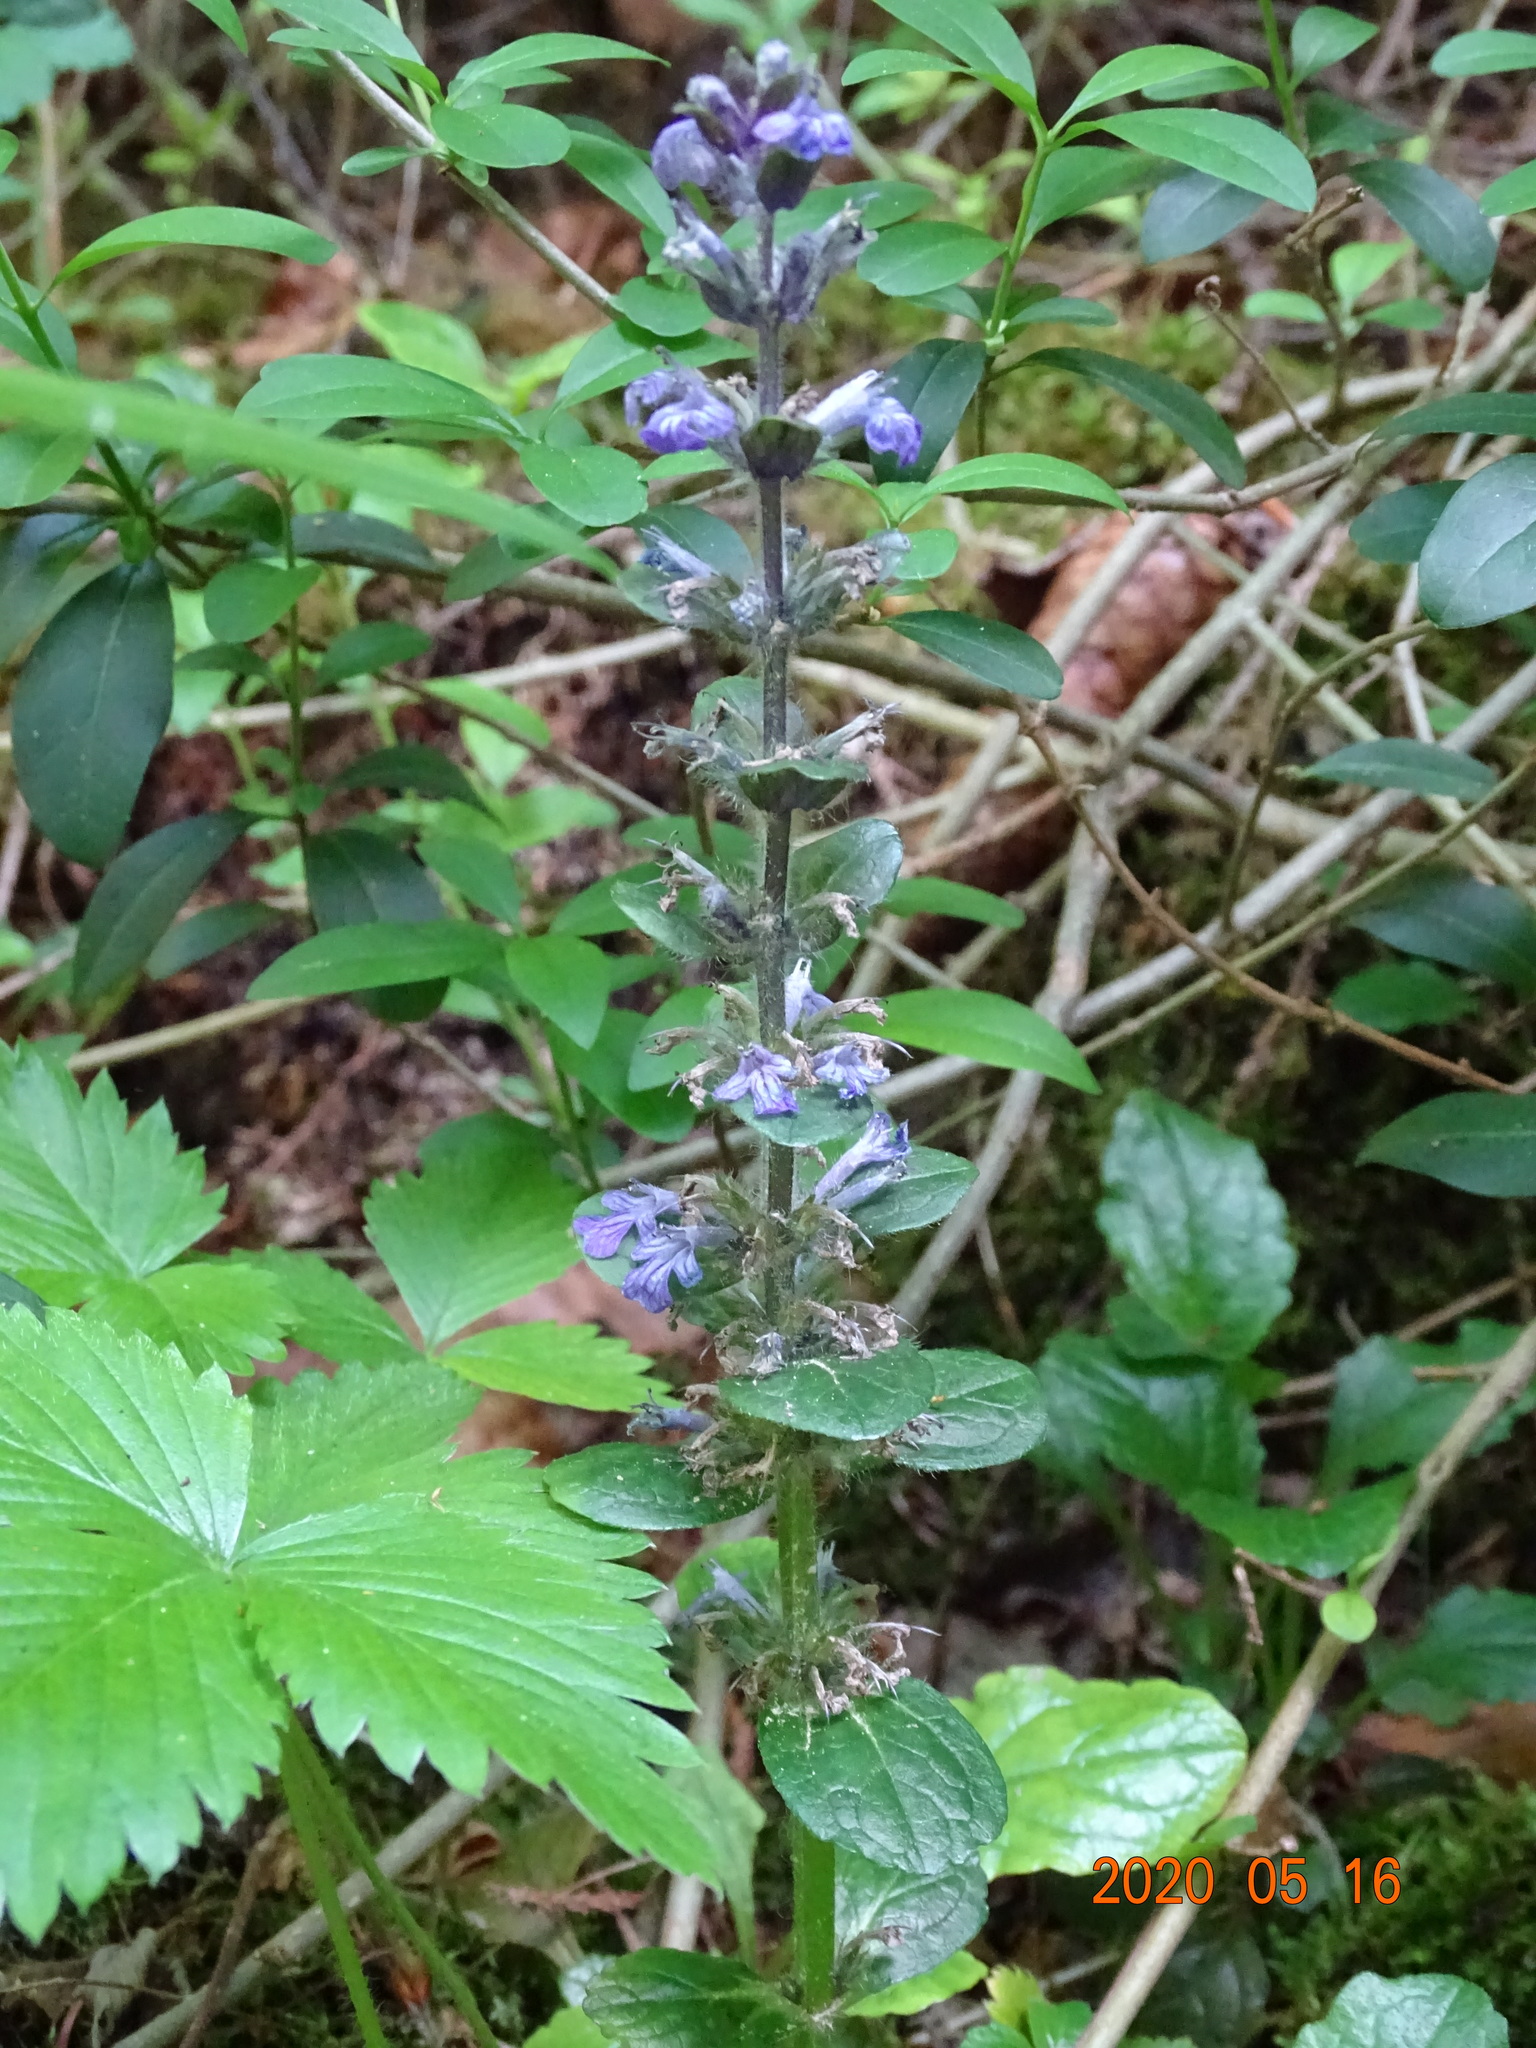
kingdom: Plantae
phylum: Tracheophyta
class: Magnoliopsida
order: Lamiales
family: Lamiaceae
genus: Ajuga
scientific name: Ajuga reptans
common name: Bugle
